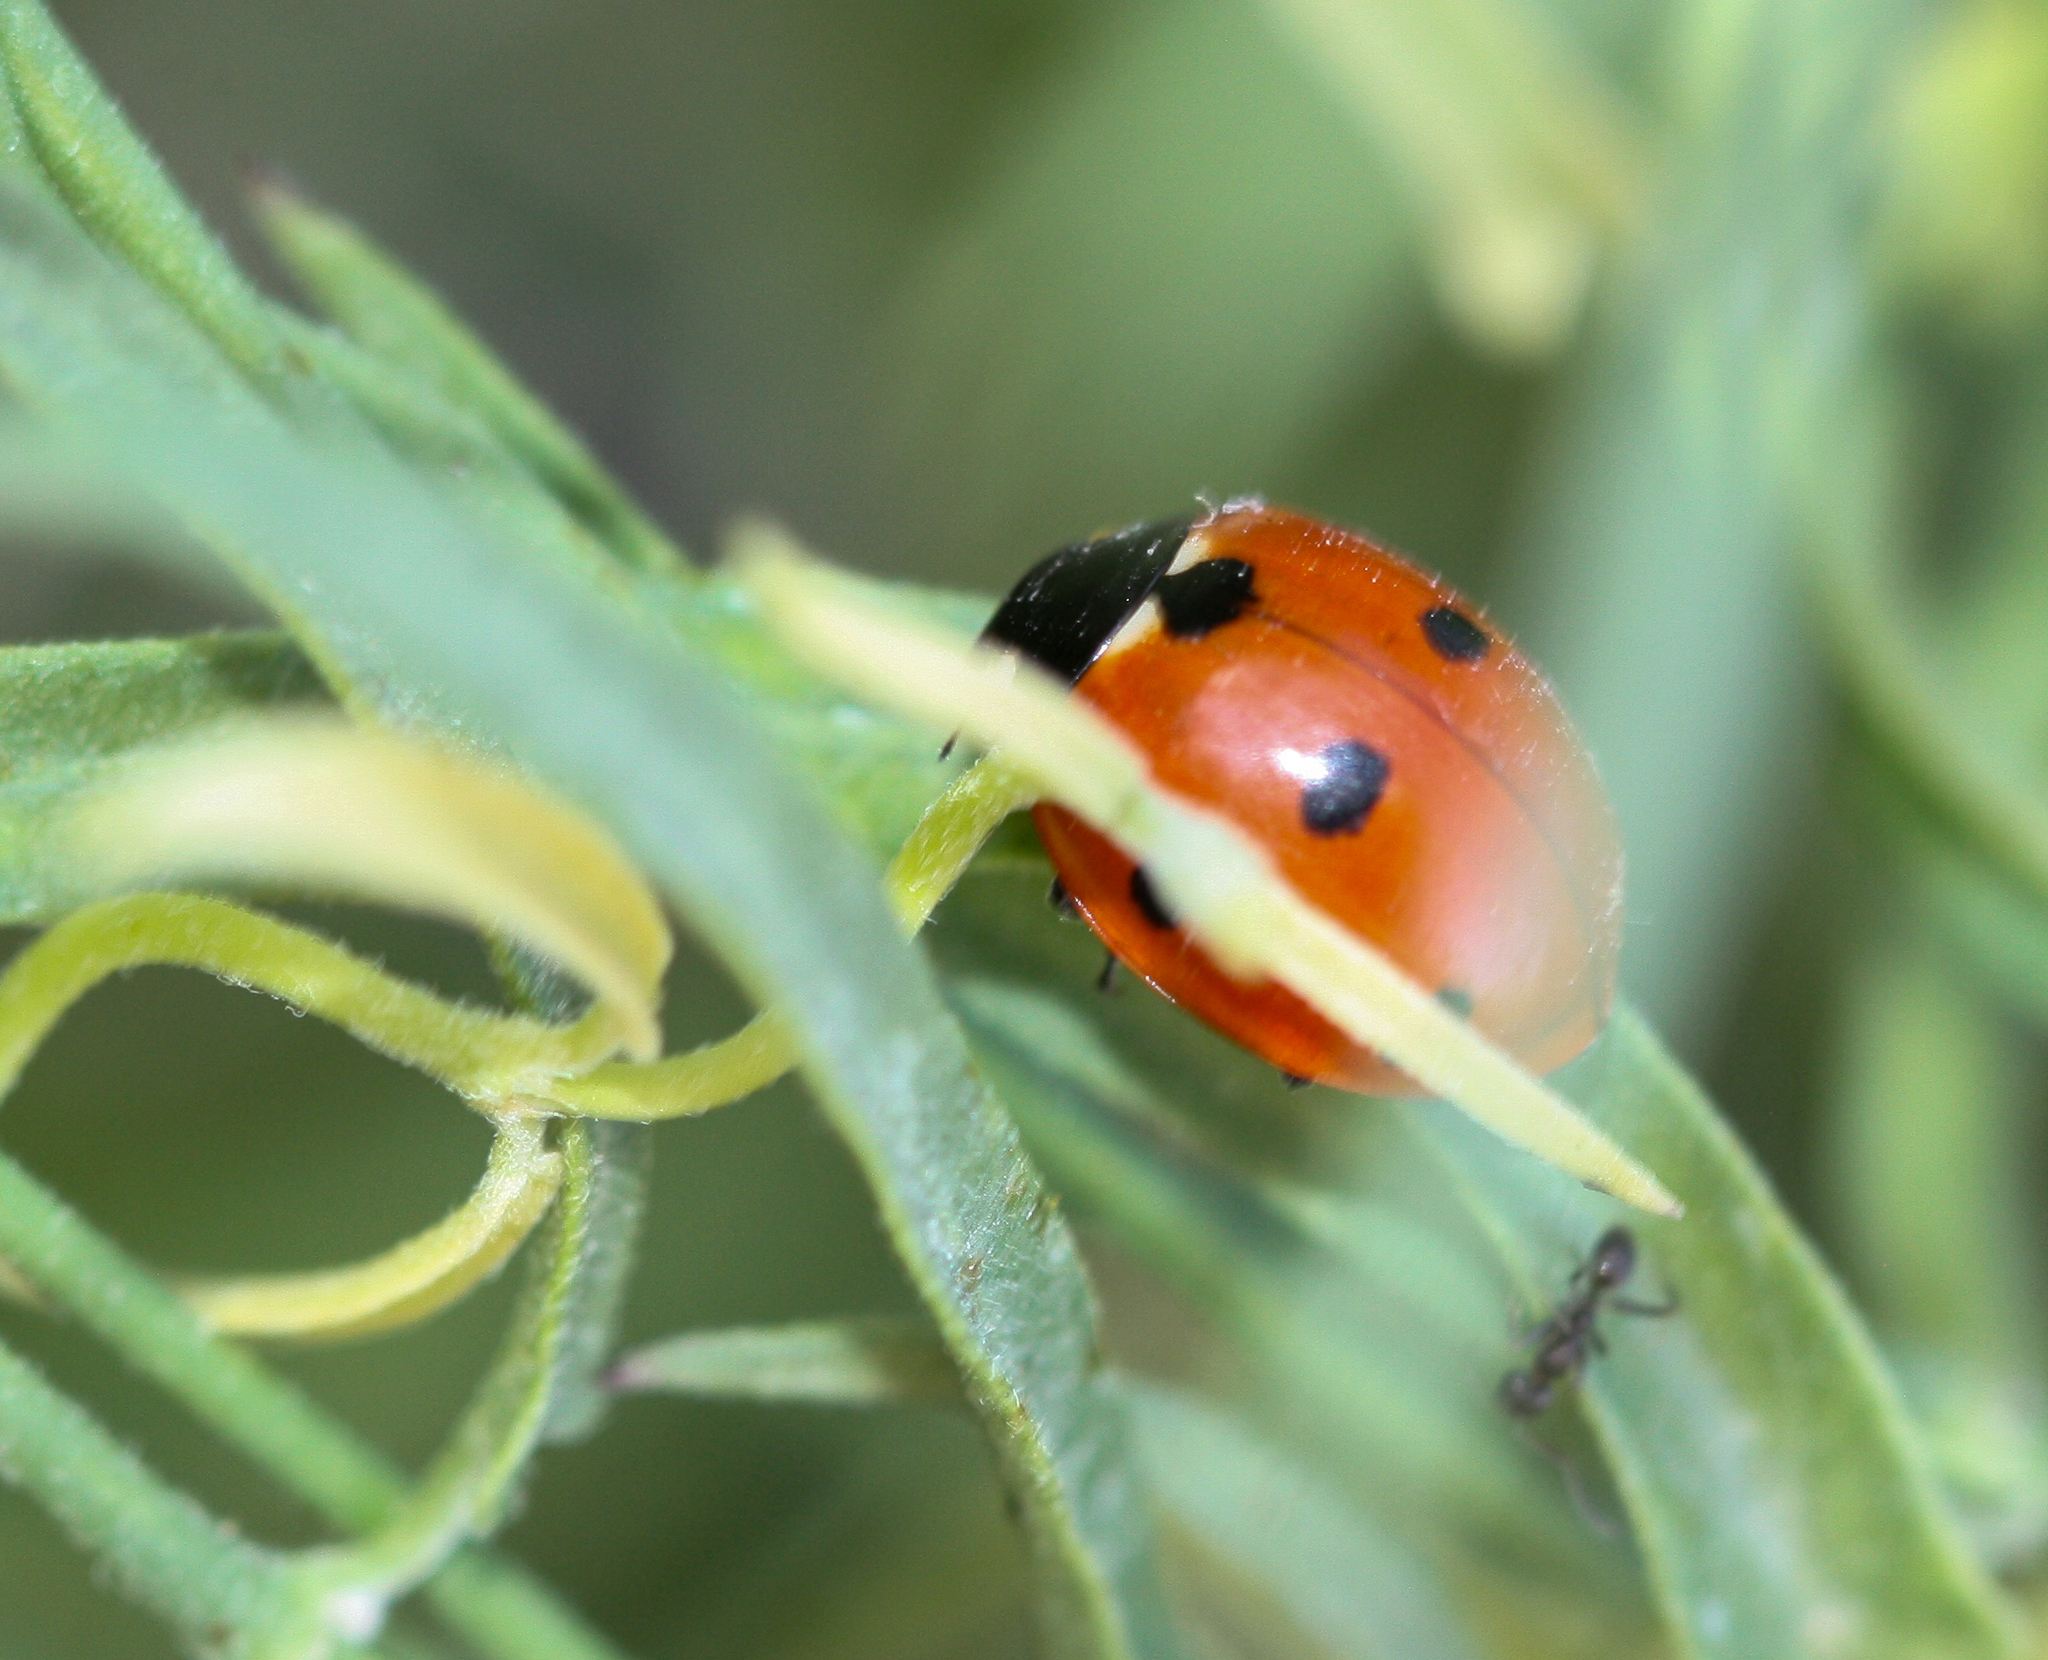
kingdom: Animalia
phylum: Arthropoda
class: Insecta
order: Coleoptera
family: Coccinellidae
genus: Coccinella
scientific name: Coccinella septempunctata
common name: Sevenspotted lady beetle
